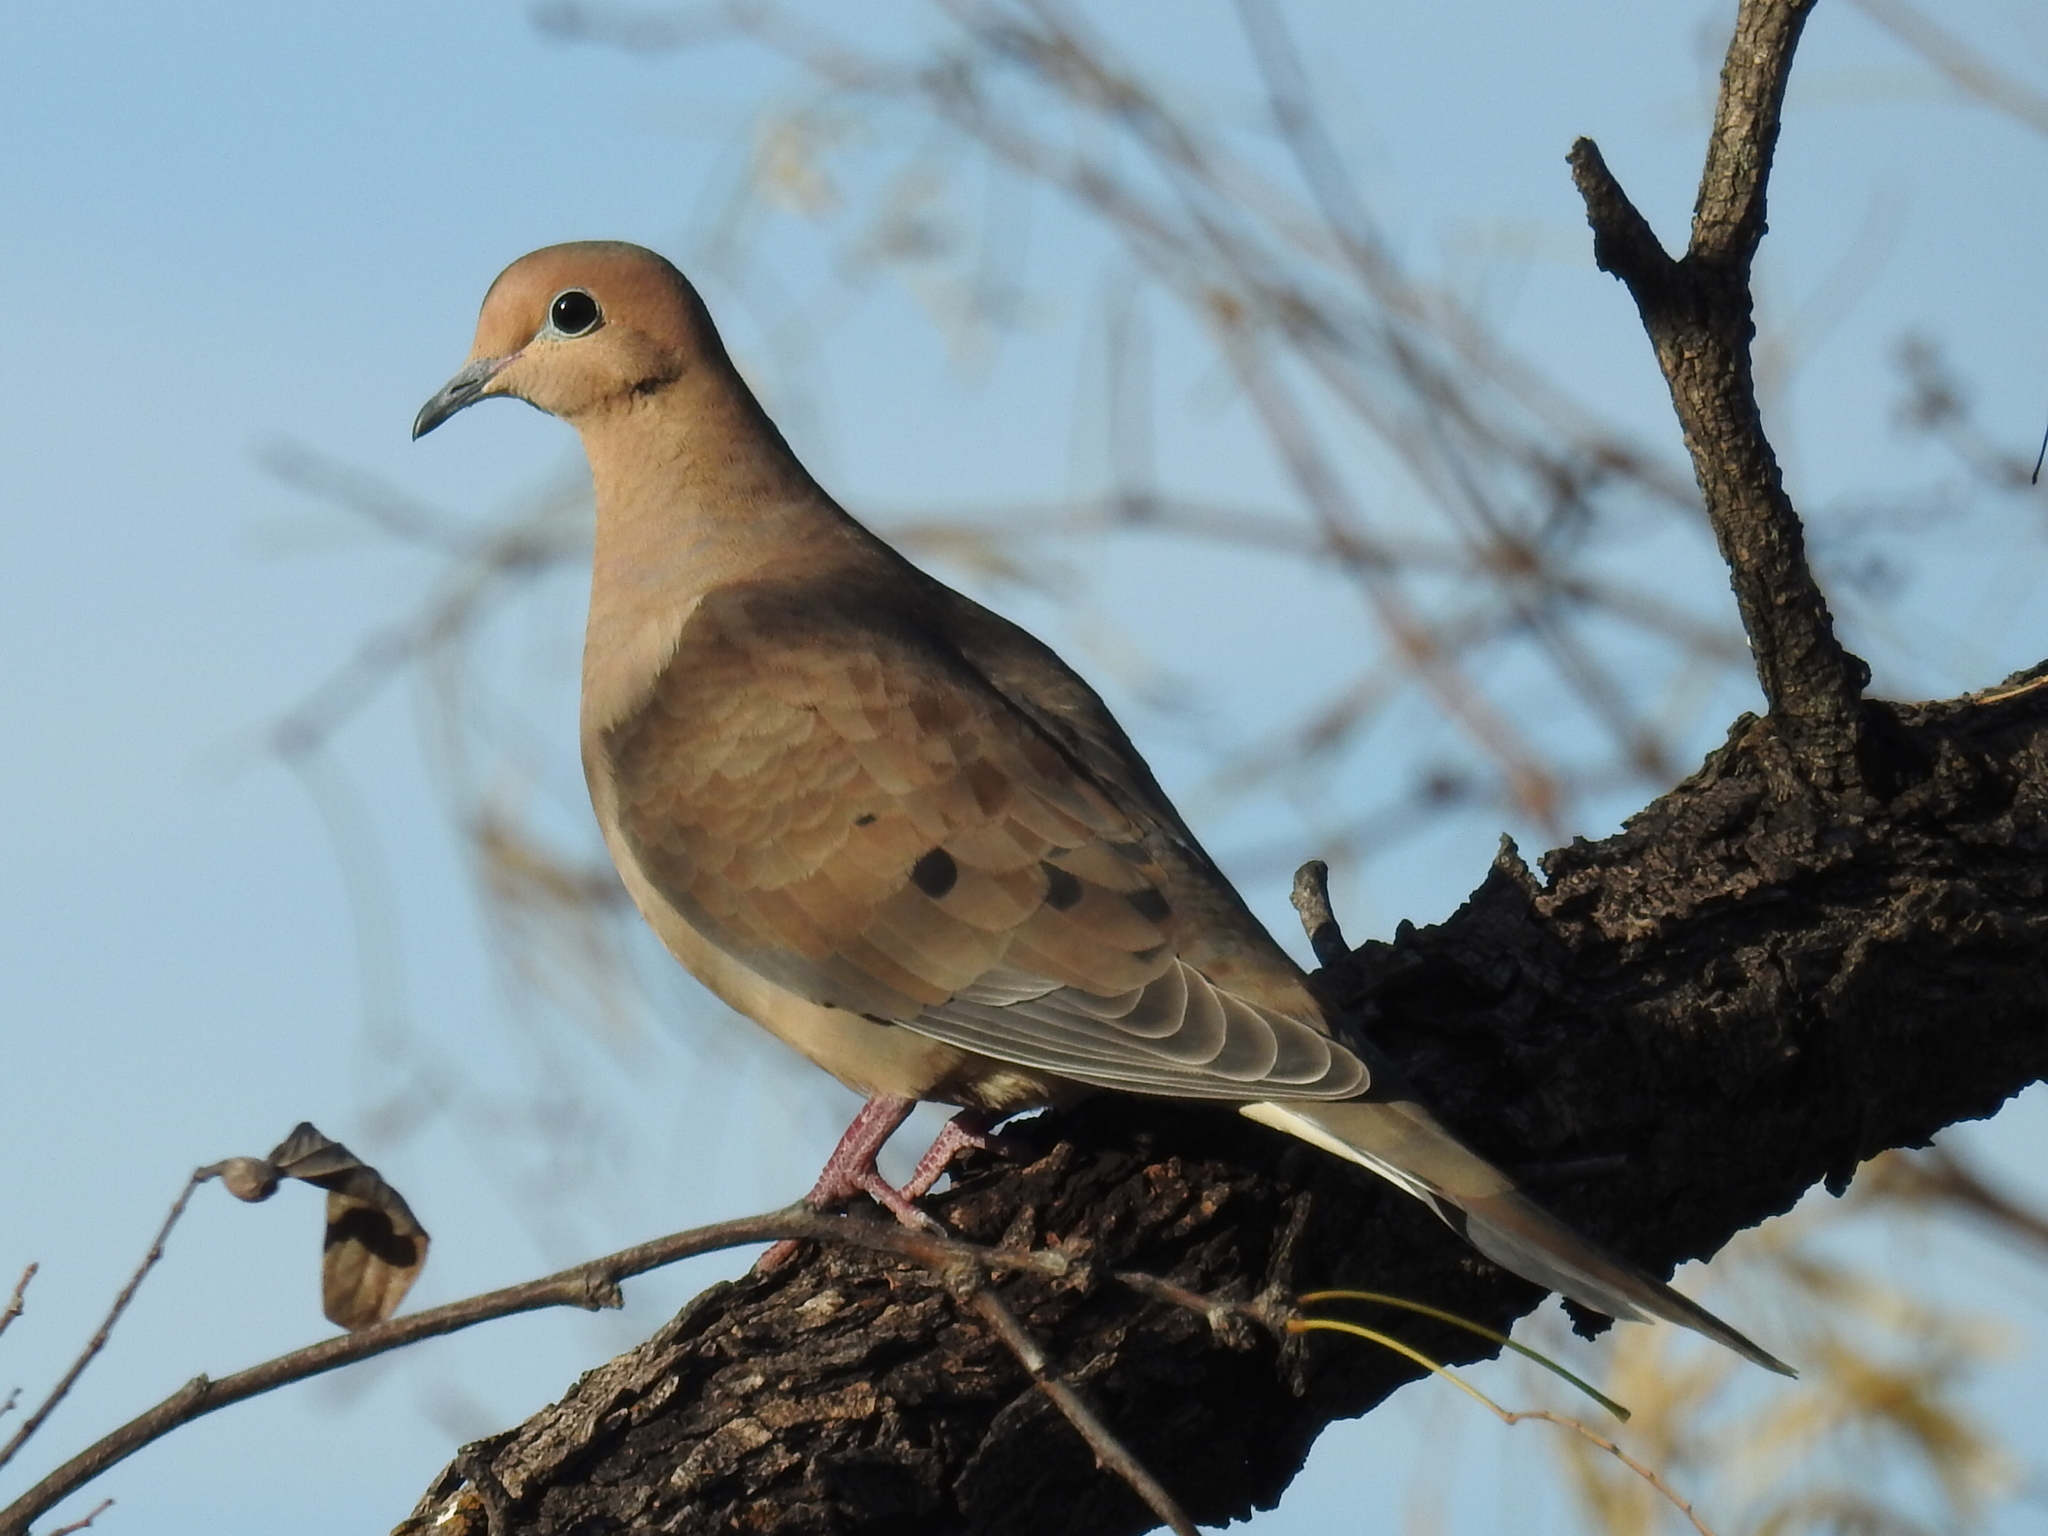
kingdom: Animalia
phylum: Chordata
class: Aves
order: Columbiformes
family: Columbidae
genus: Zenaida
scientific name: Zenaida macroura
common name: Mourning dove
